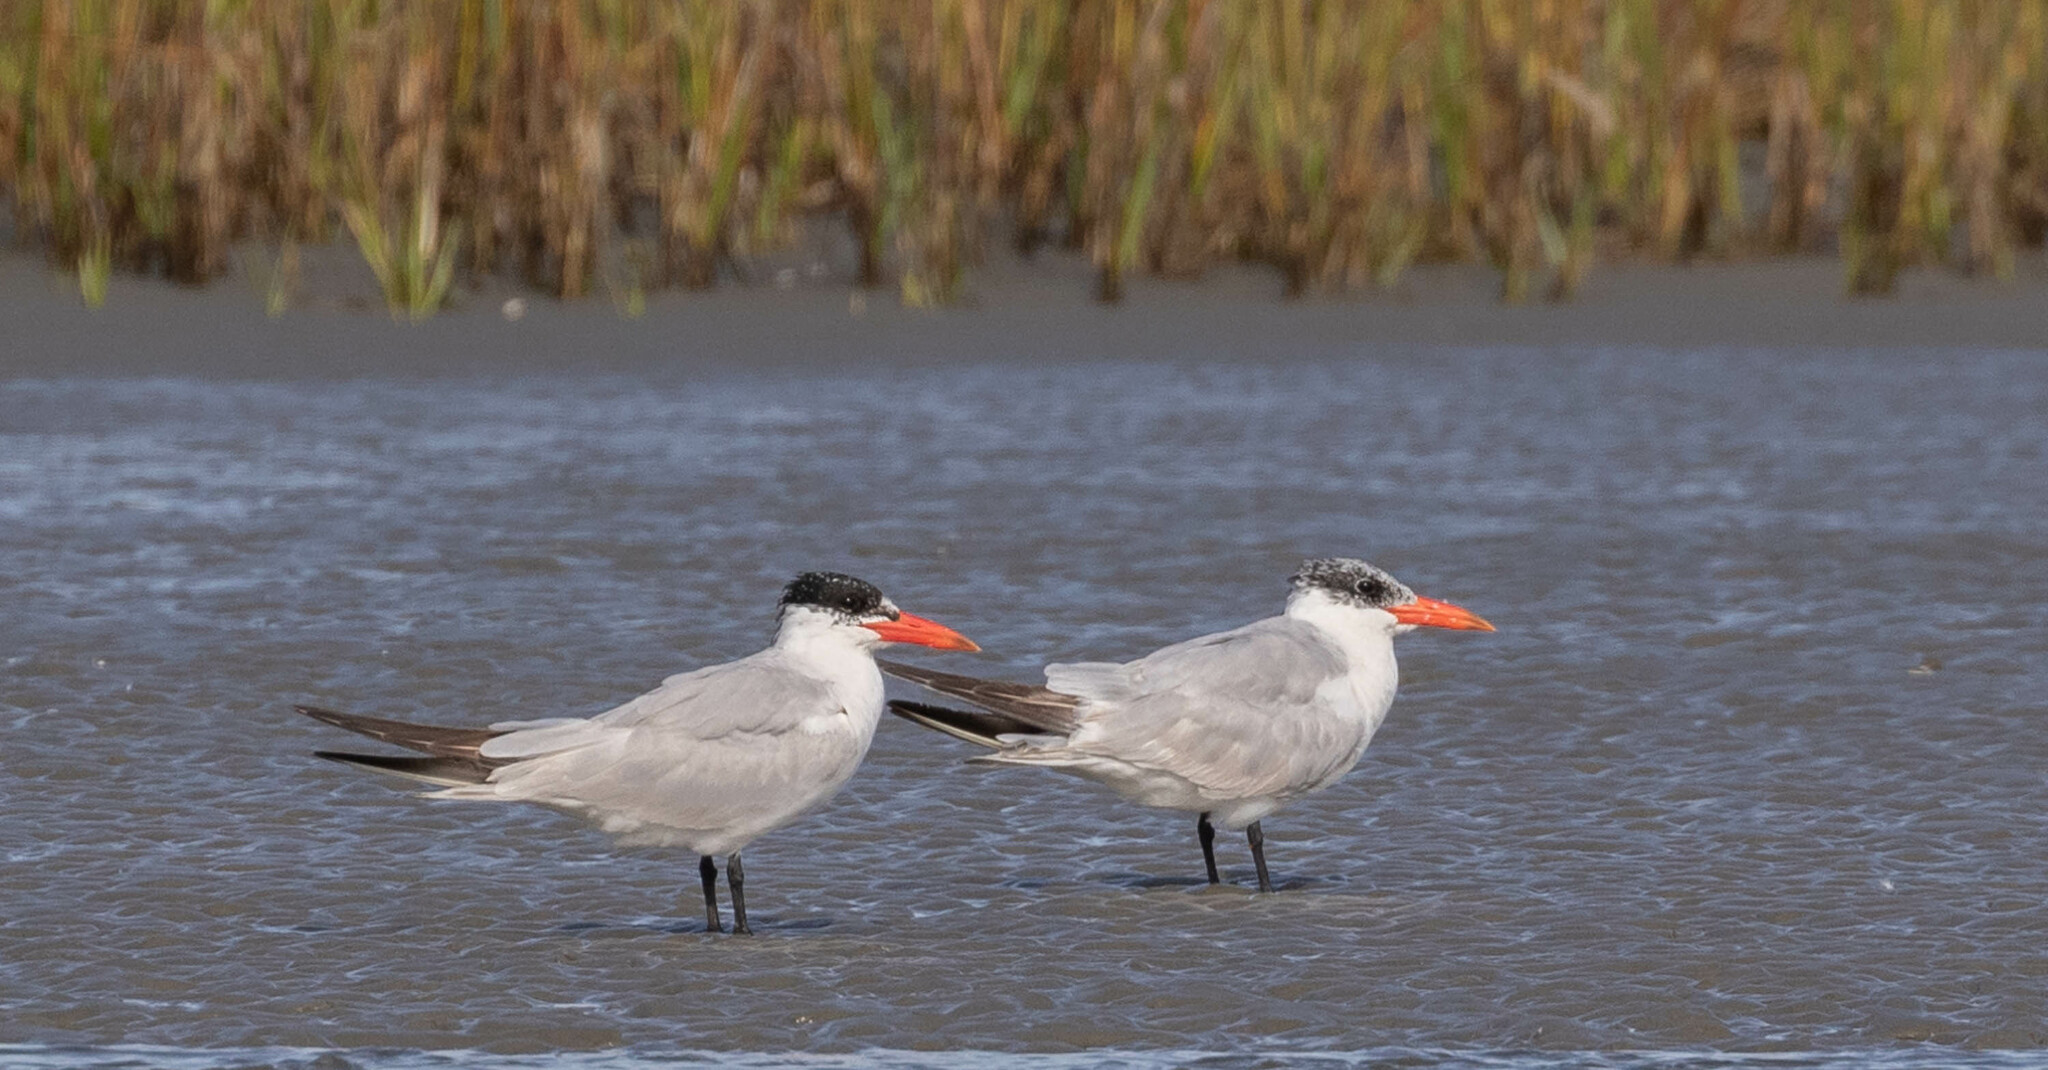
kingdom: Animalia
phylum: Chordata
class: Aves
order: Charadriiformes
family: Laridae
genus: Hydroprogne
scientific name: Hydroprogne caspia
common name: Caspian tern
